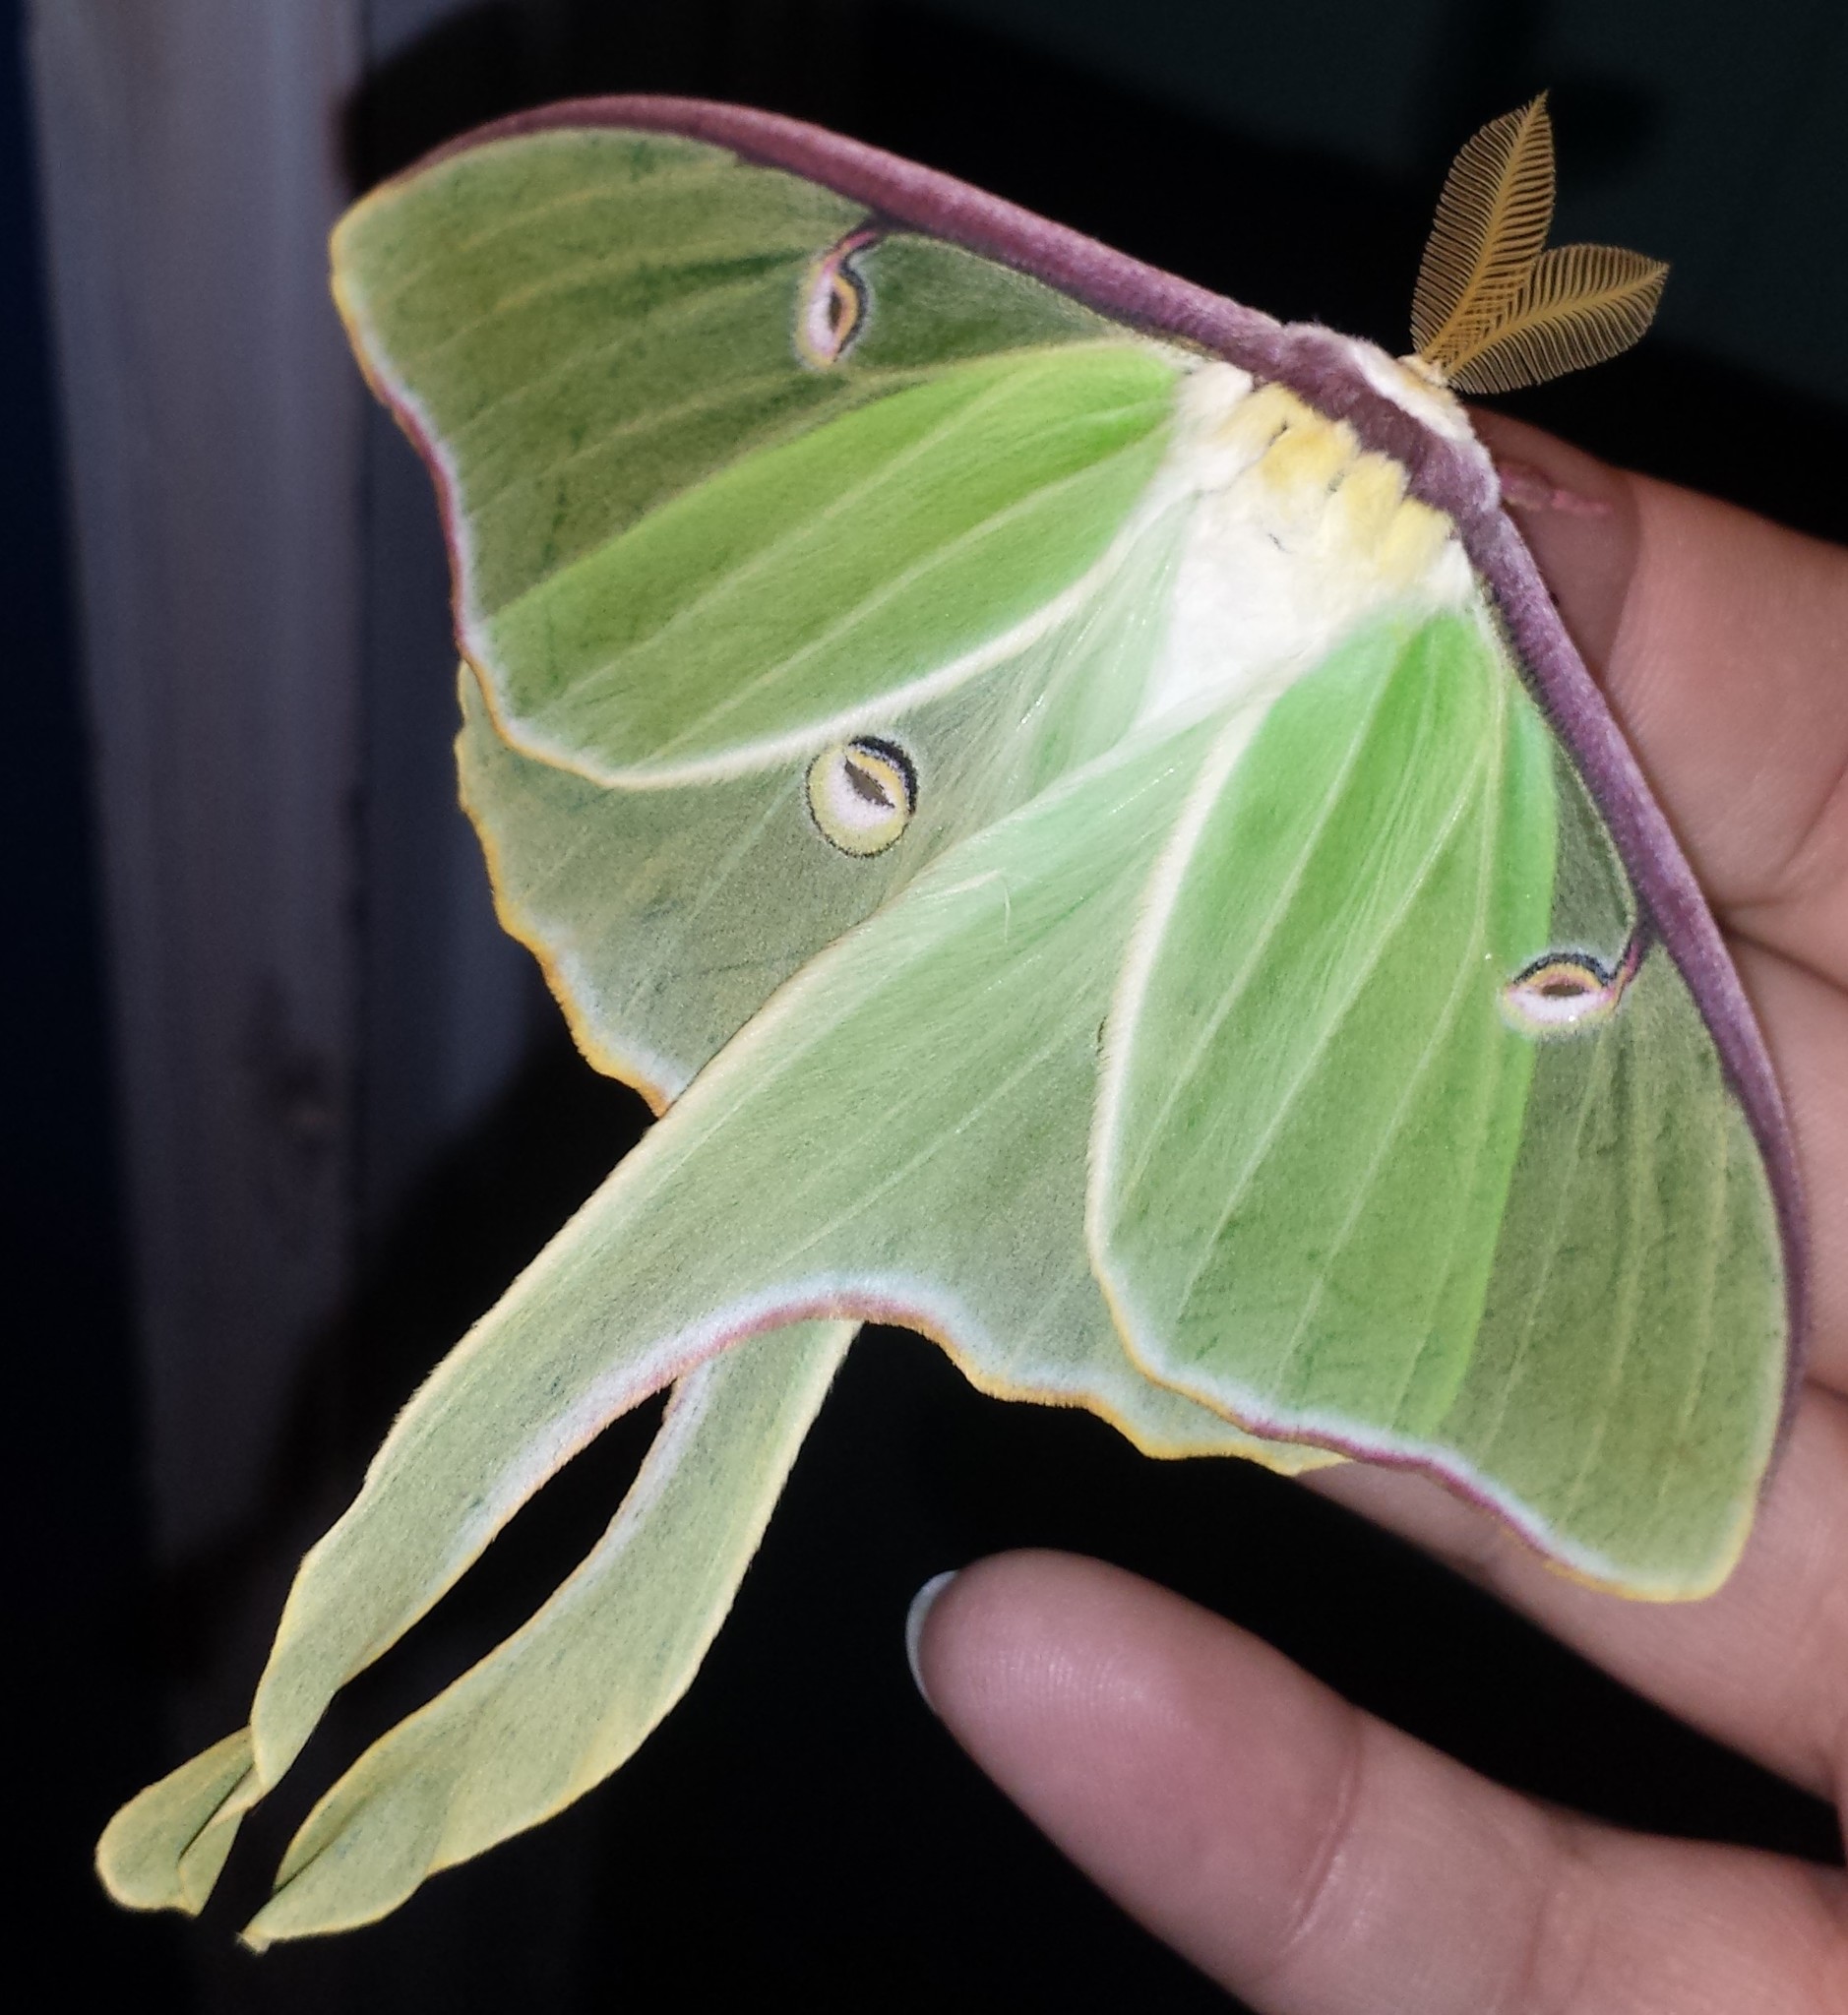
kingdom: Animalia
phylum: Arthropoda
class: Insecta
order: Lepidoptera
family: Saturniidae
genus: Actias
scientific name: Actias luna
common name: Luna moth
